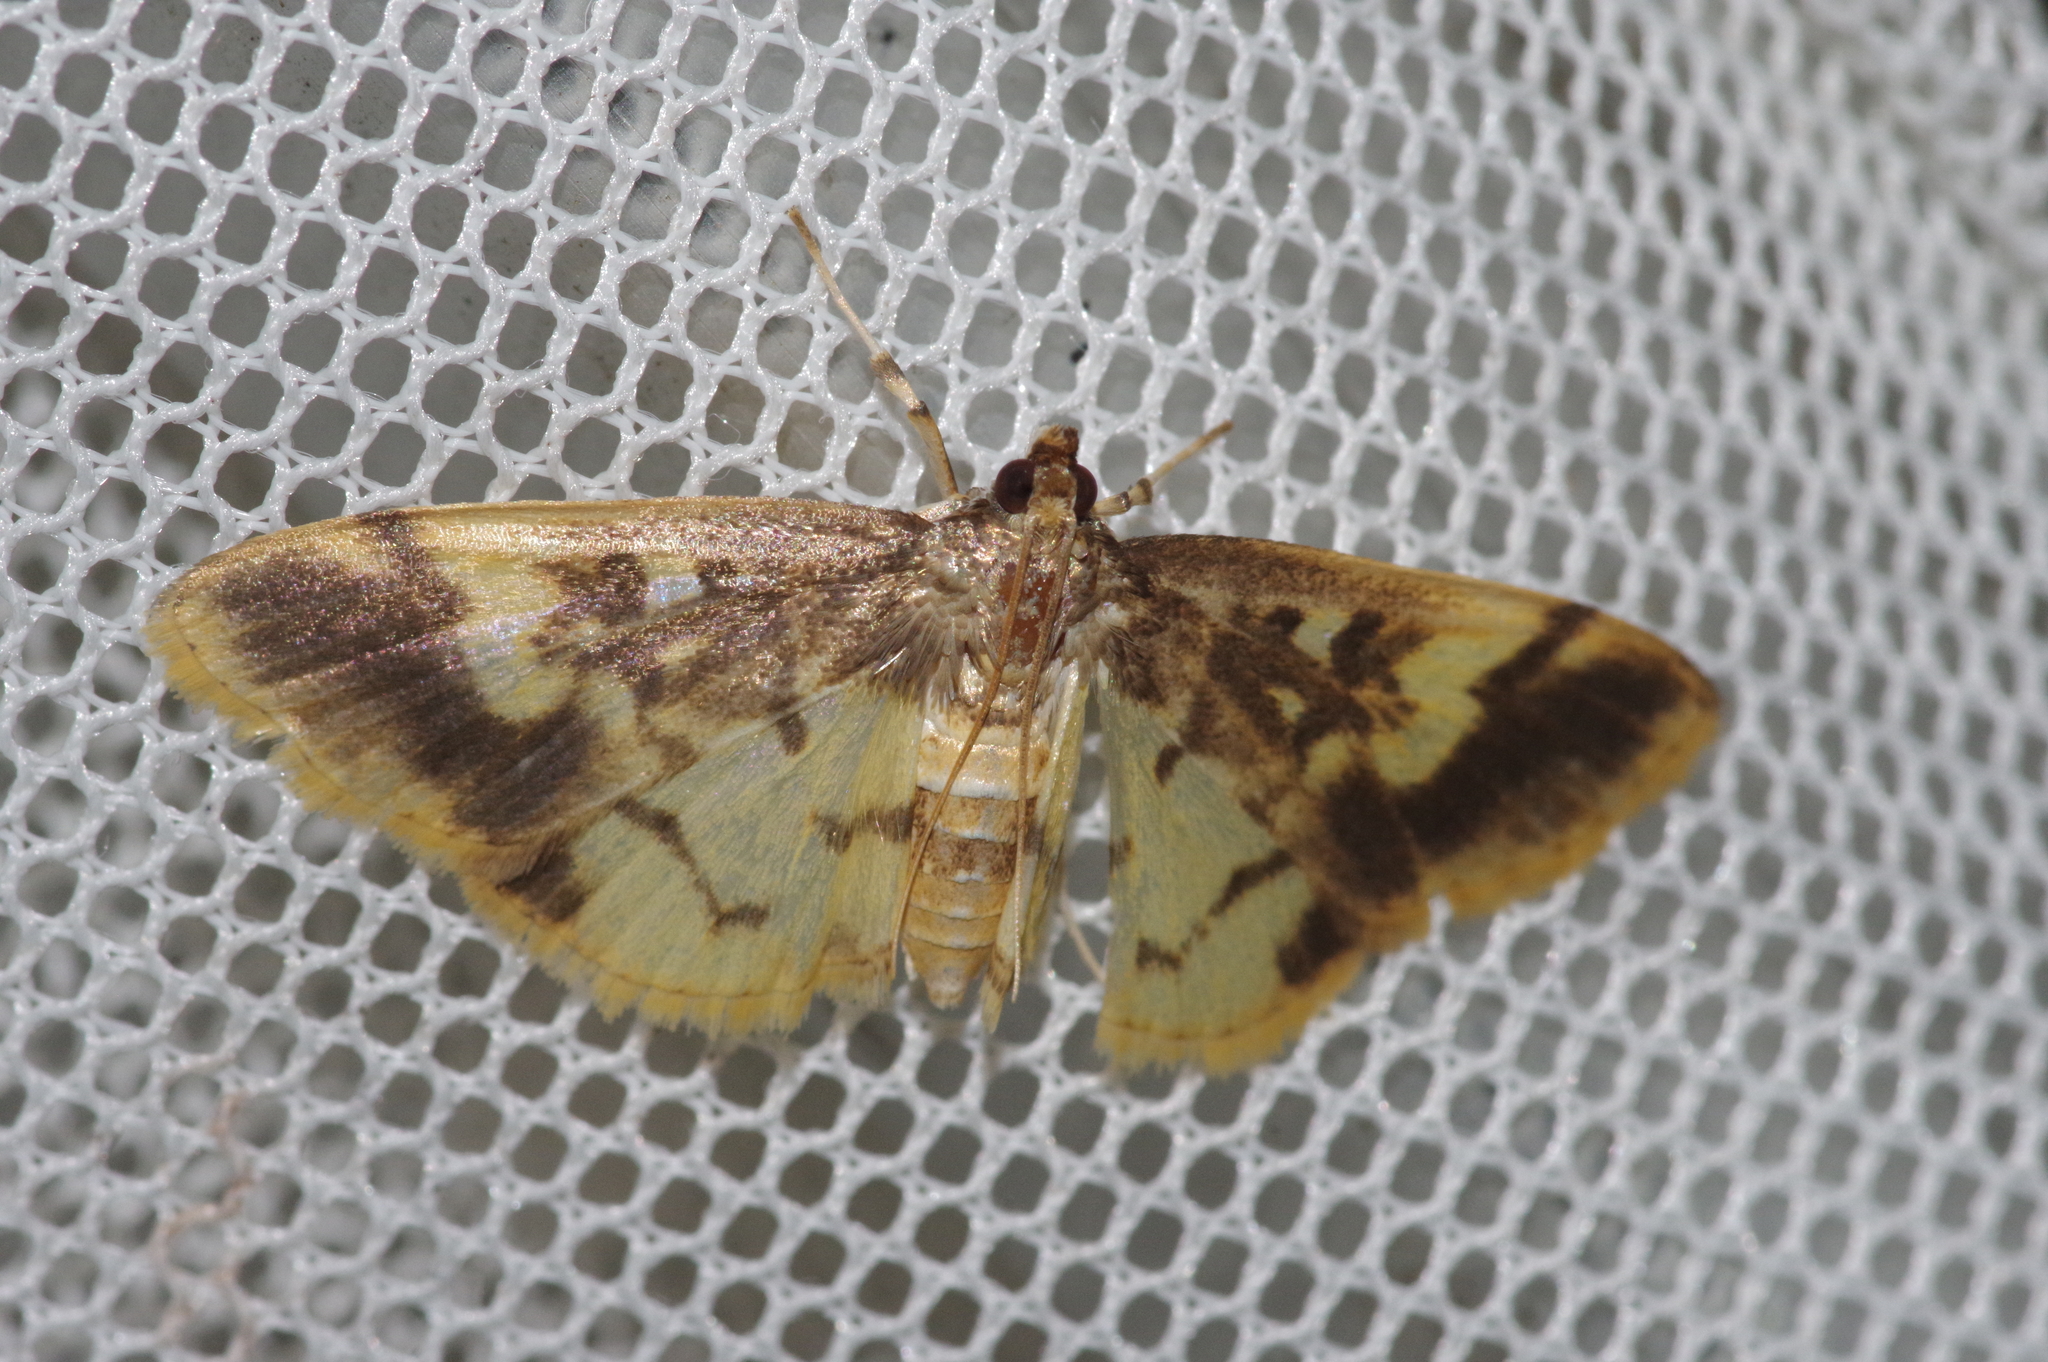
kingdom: Animalia
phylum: Arthropoda
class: Insecta
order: Lepidoptera
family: Crambidae
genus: Pseudebulea
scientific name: Pseudebulea fentoni
